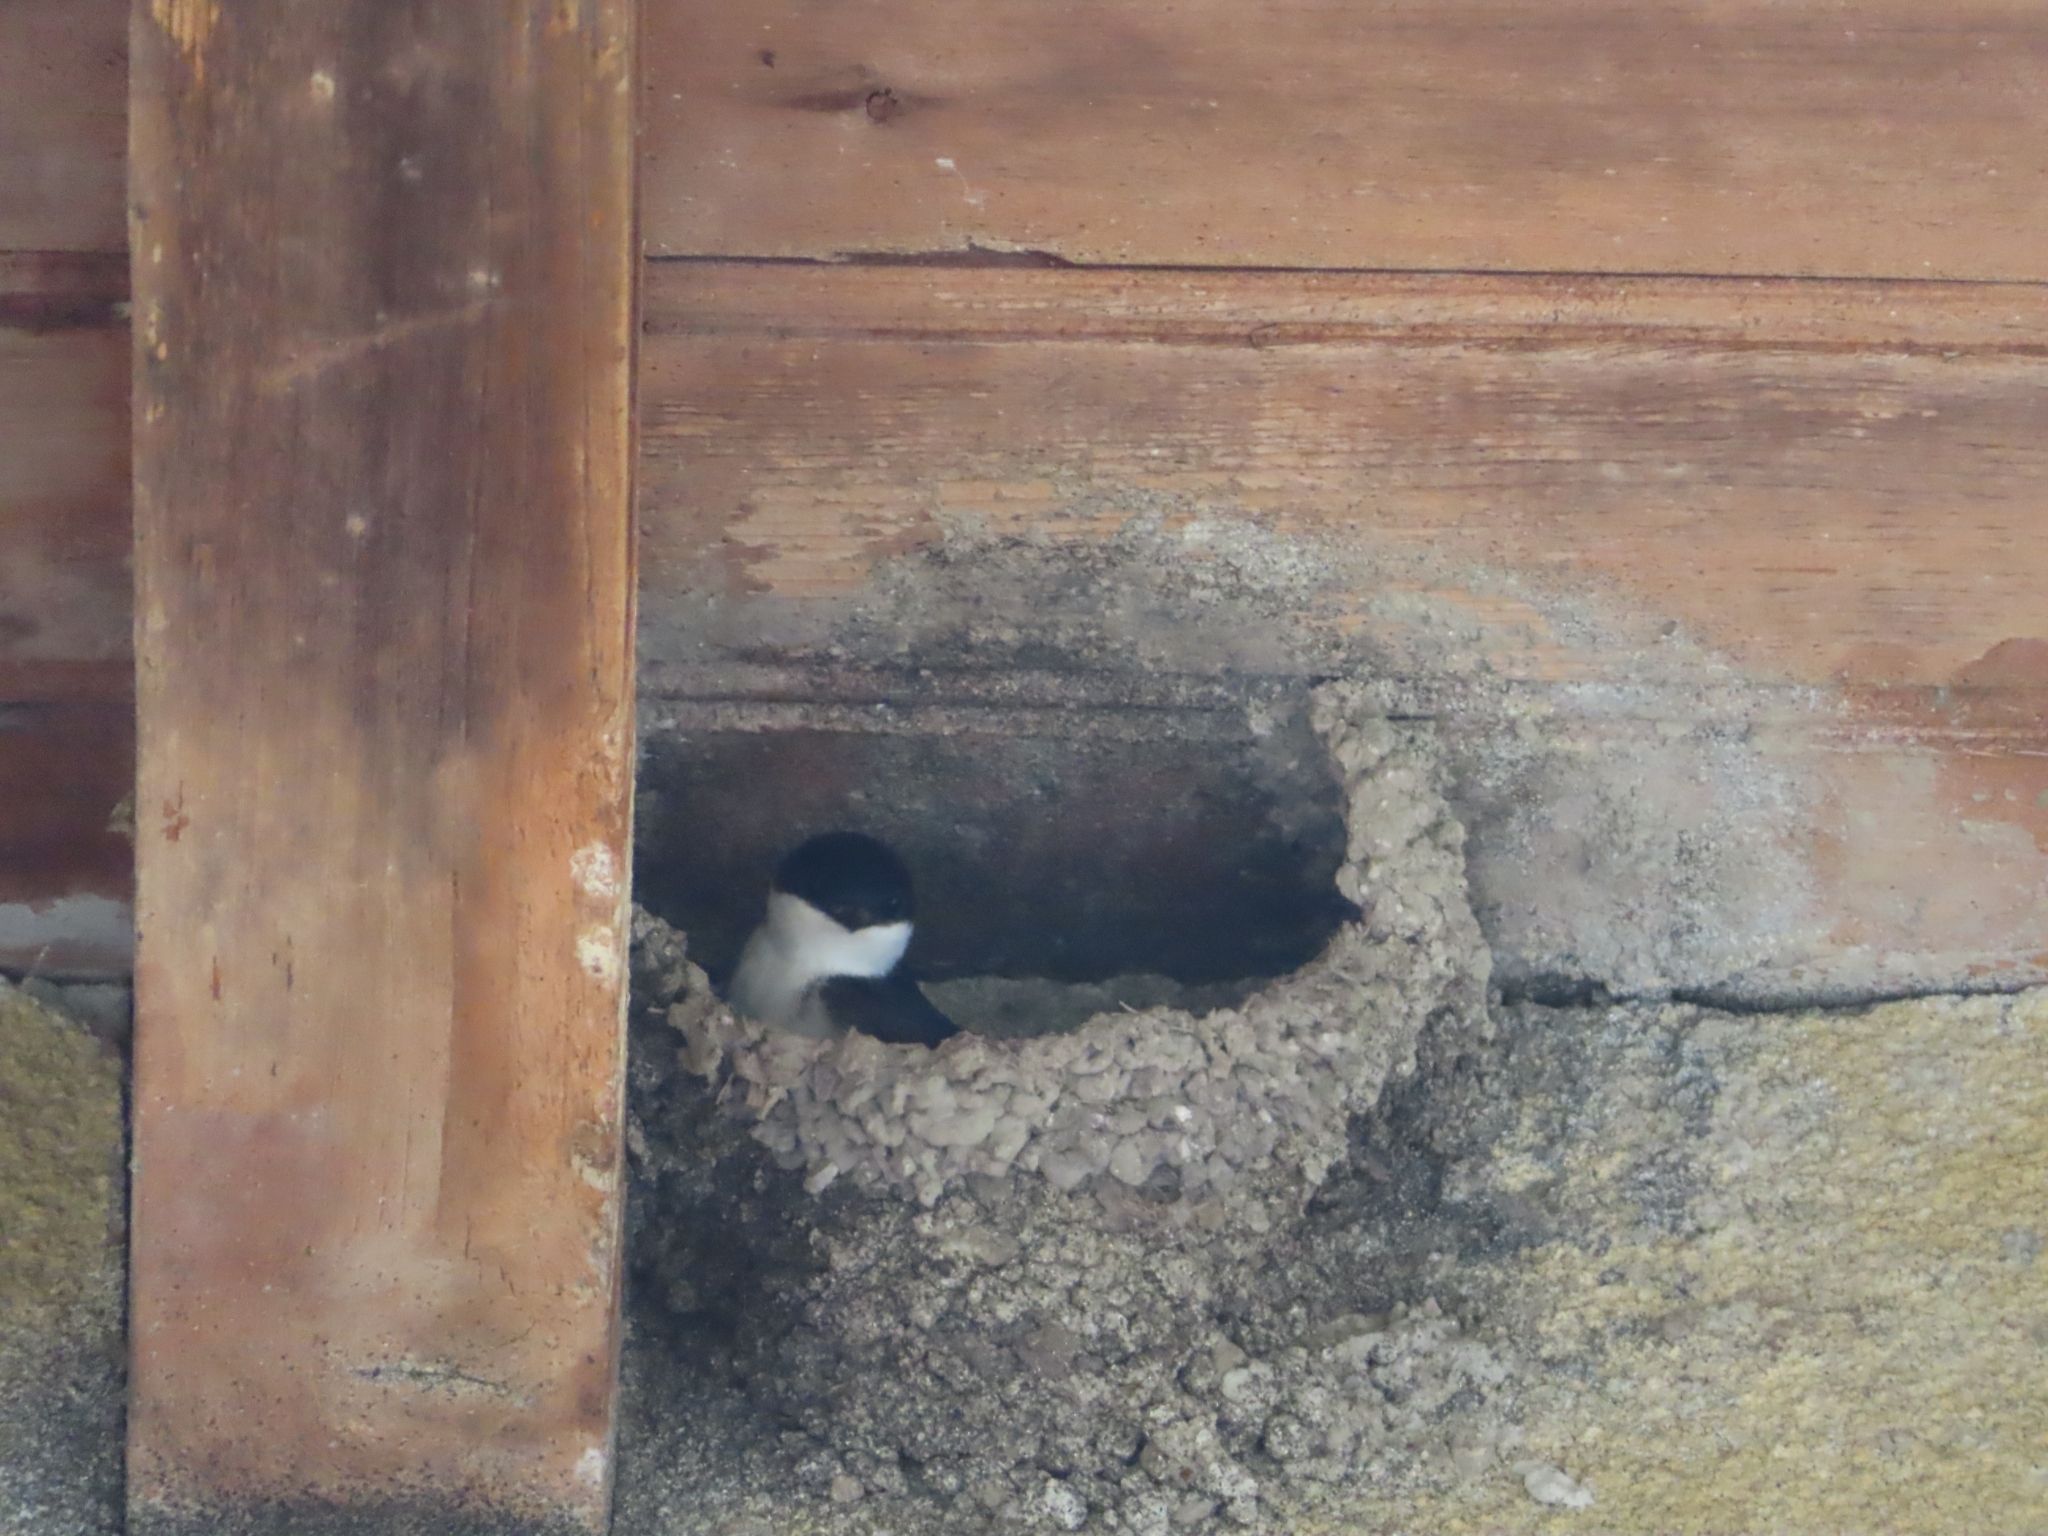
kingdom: Animalia
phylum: Chordata
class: Aves
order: Passeriformes
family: Hirundinidae
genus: Delichon
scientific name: Delichon urbicum
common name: Common house martin
